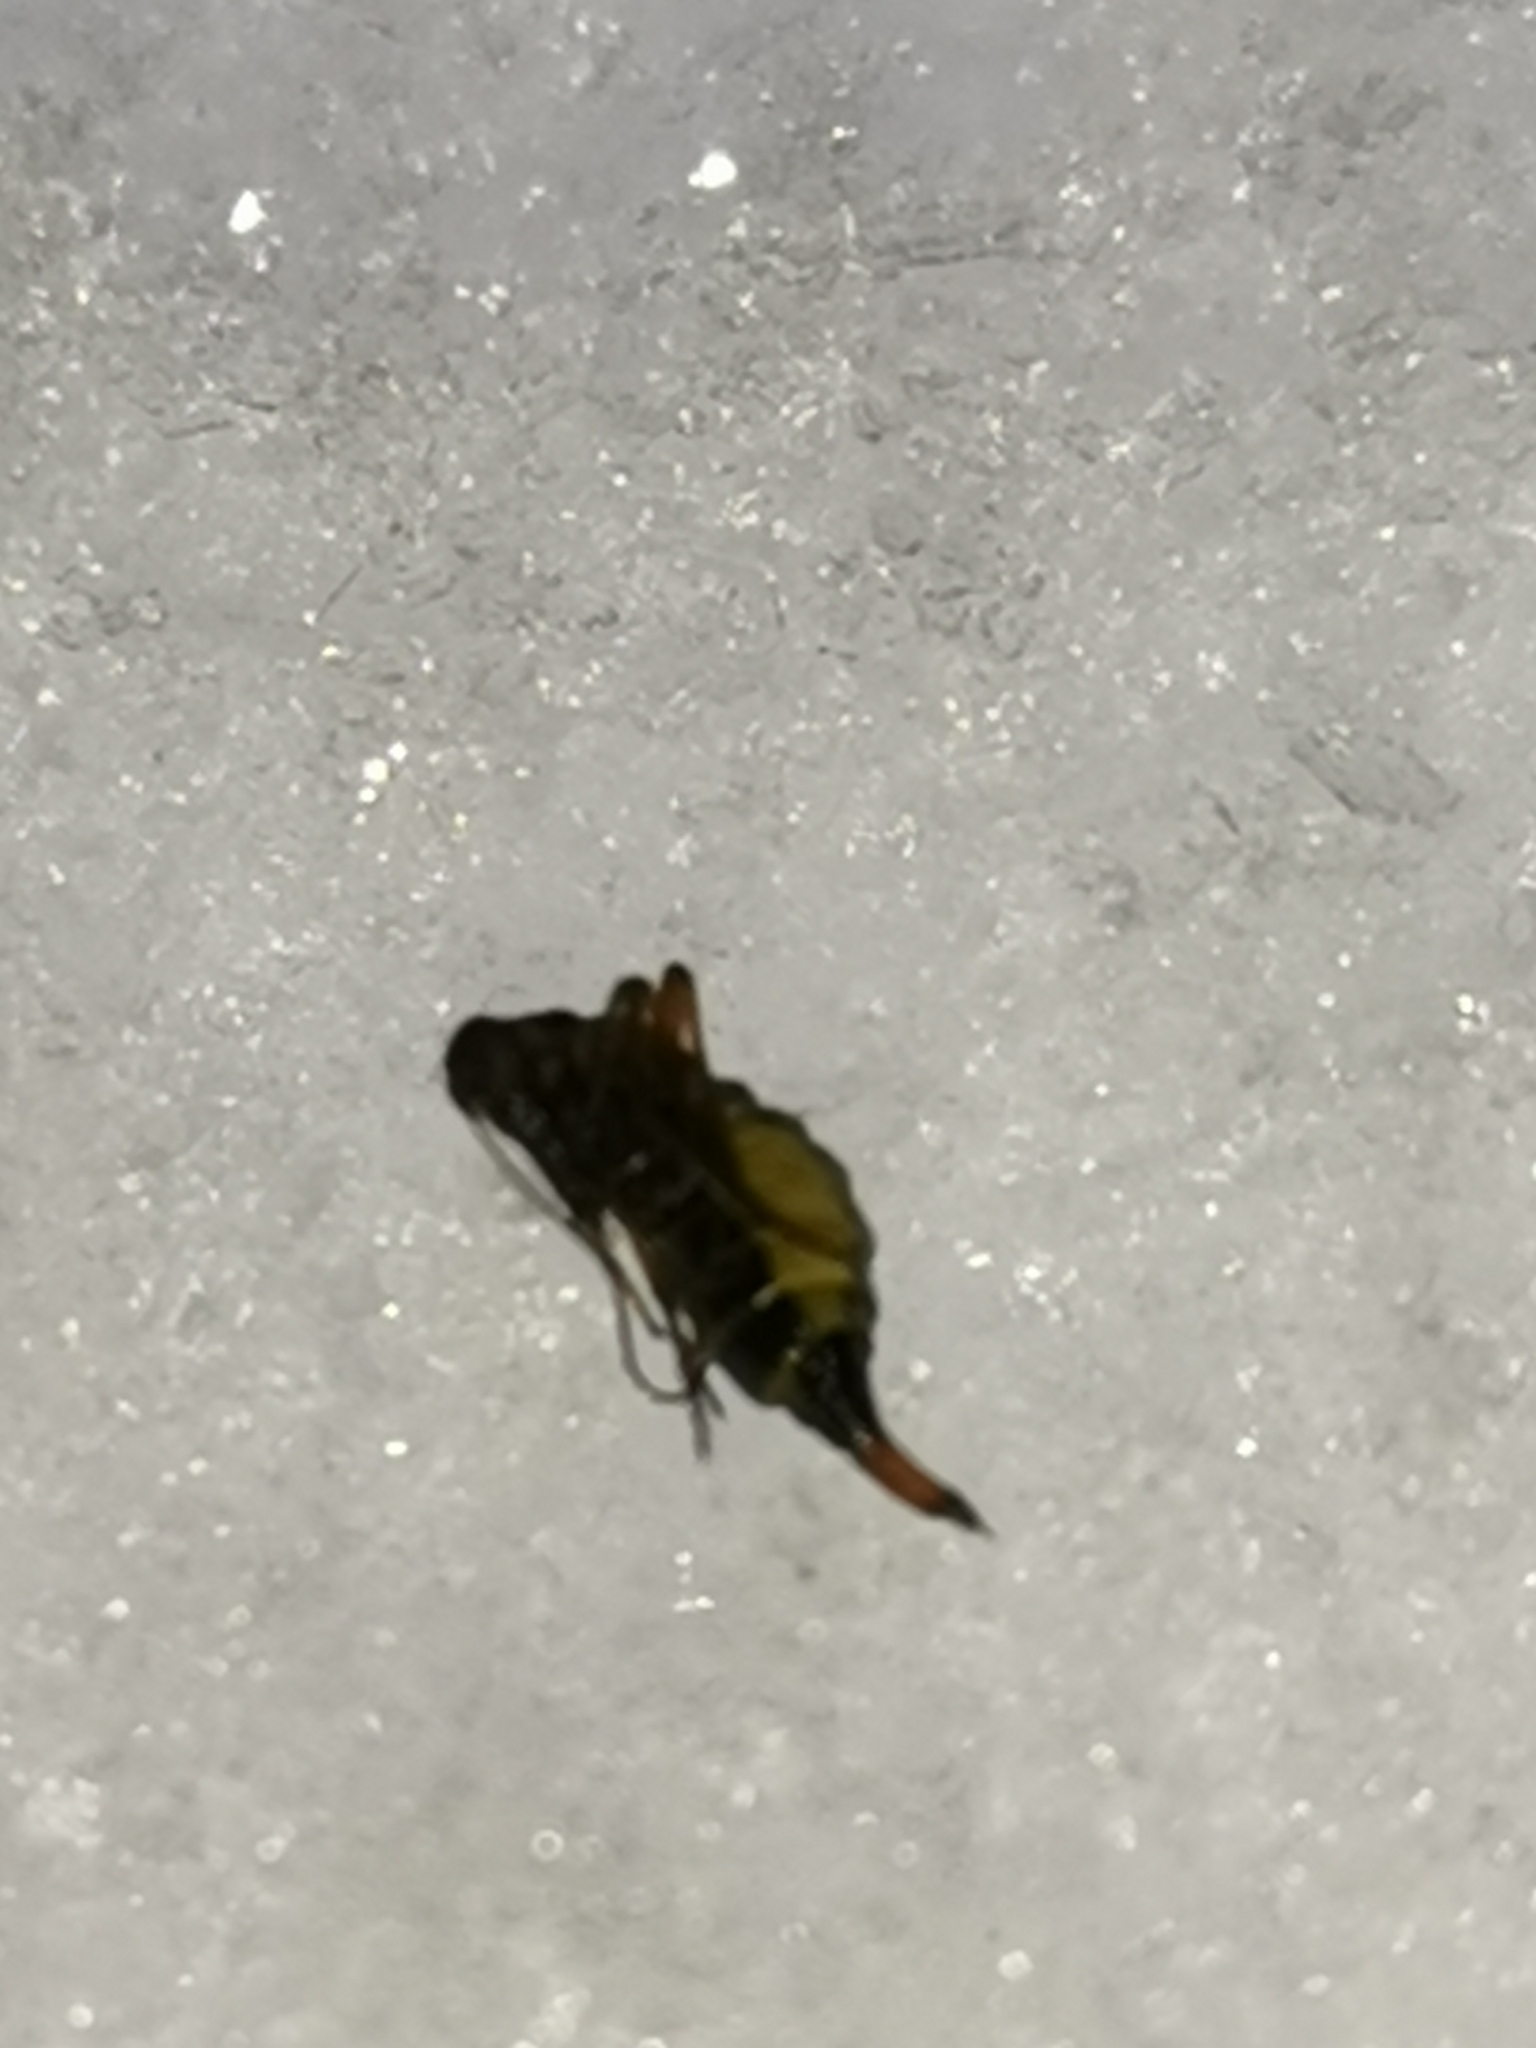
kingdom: Animalia
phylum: Arthropoda
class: Insecta
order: Mecoptera
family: Boreidae
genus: Boreus
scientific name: Boreus westwoodi
